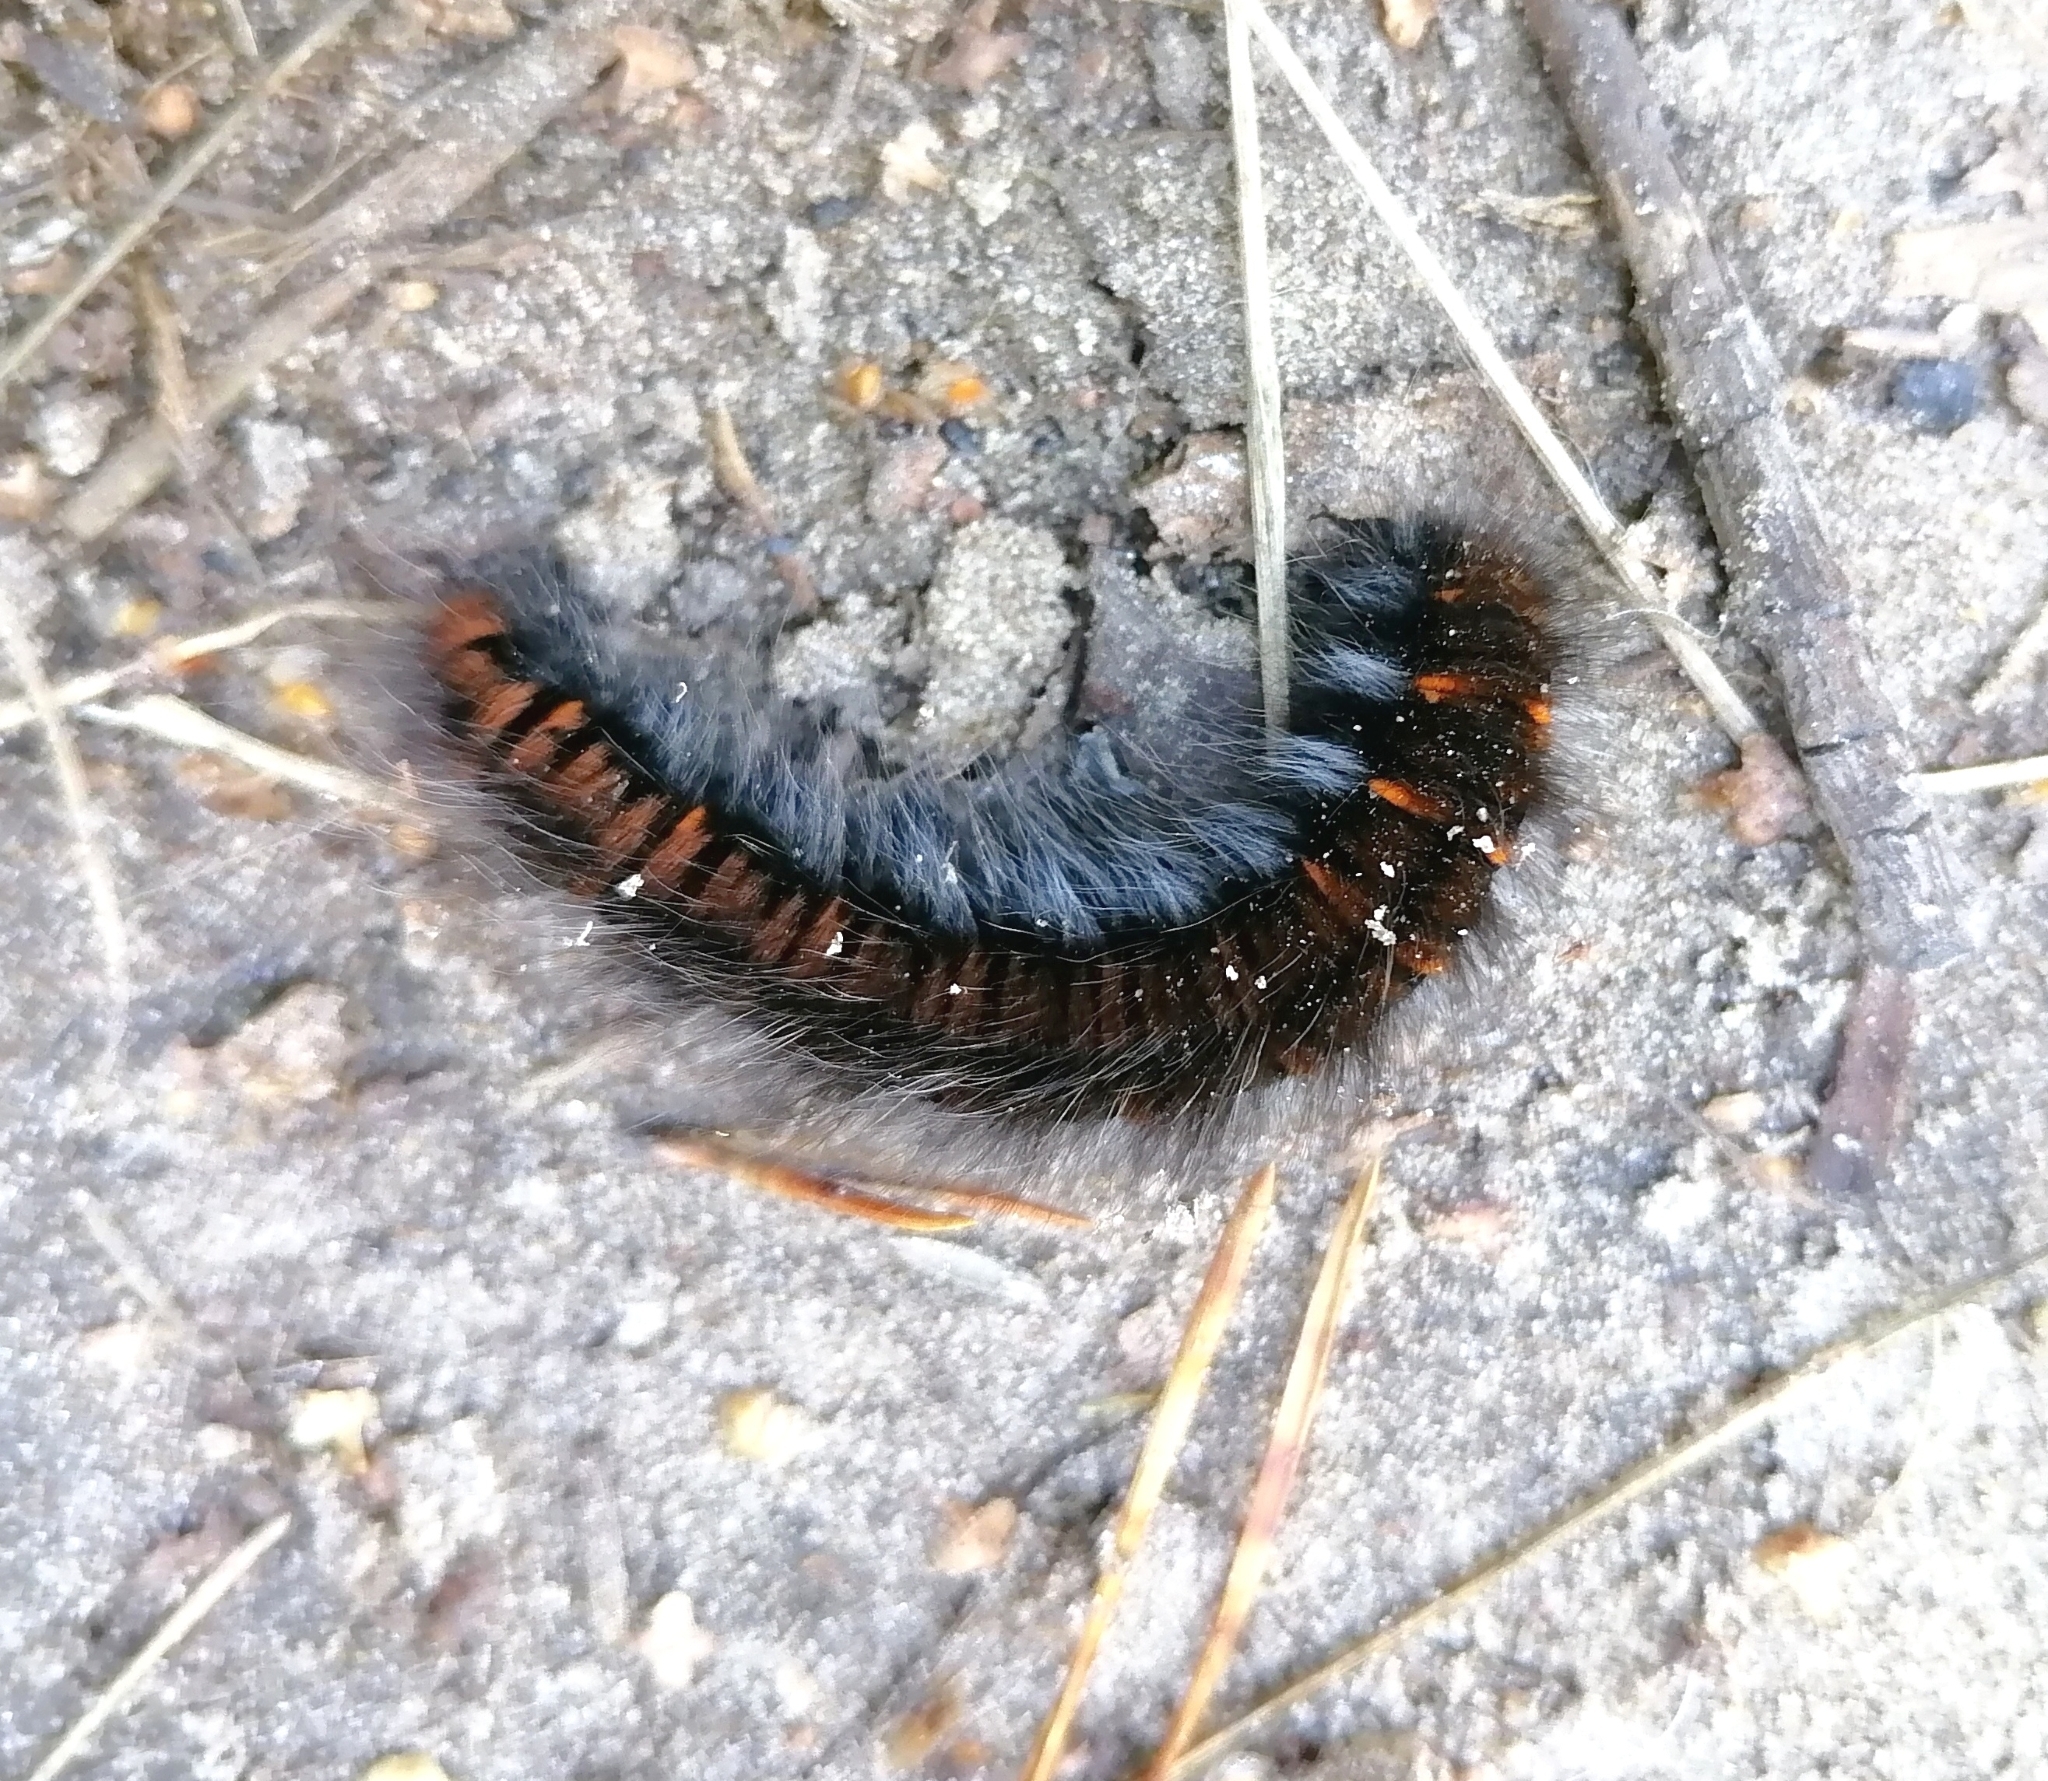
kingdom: Animalia
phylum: Arthropoda
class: Insecta
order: Lepidoptera
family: Lasiocampidae
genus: Macrothylacia
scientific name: Macrothylacia rubi
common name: Fox moth
